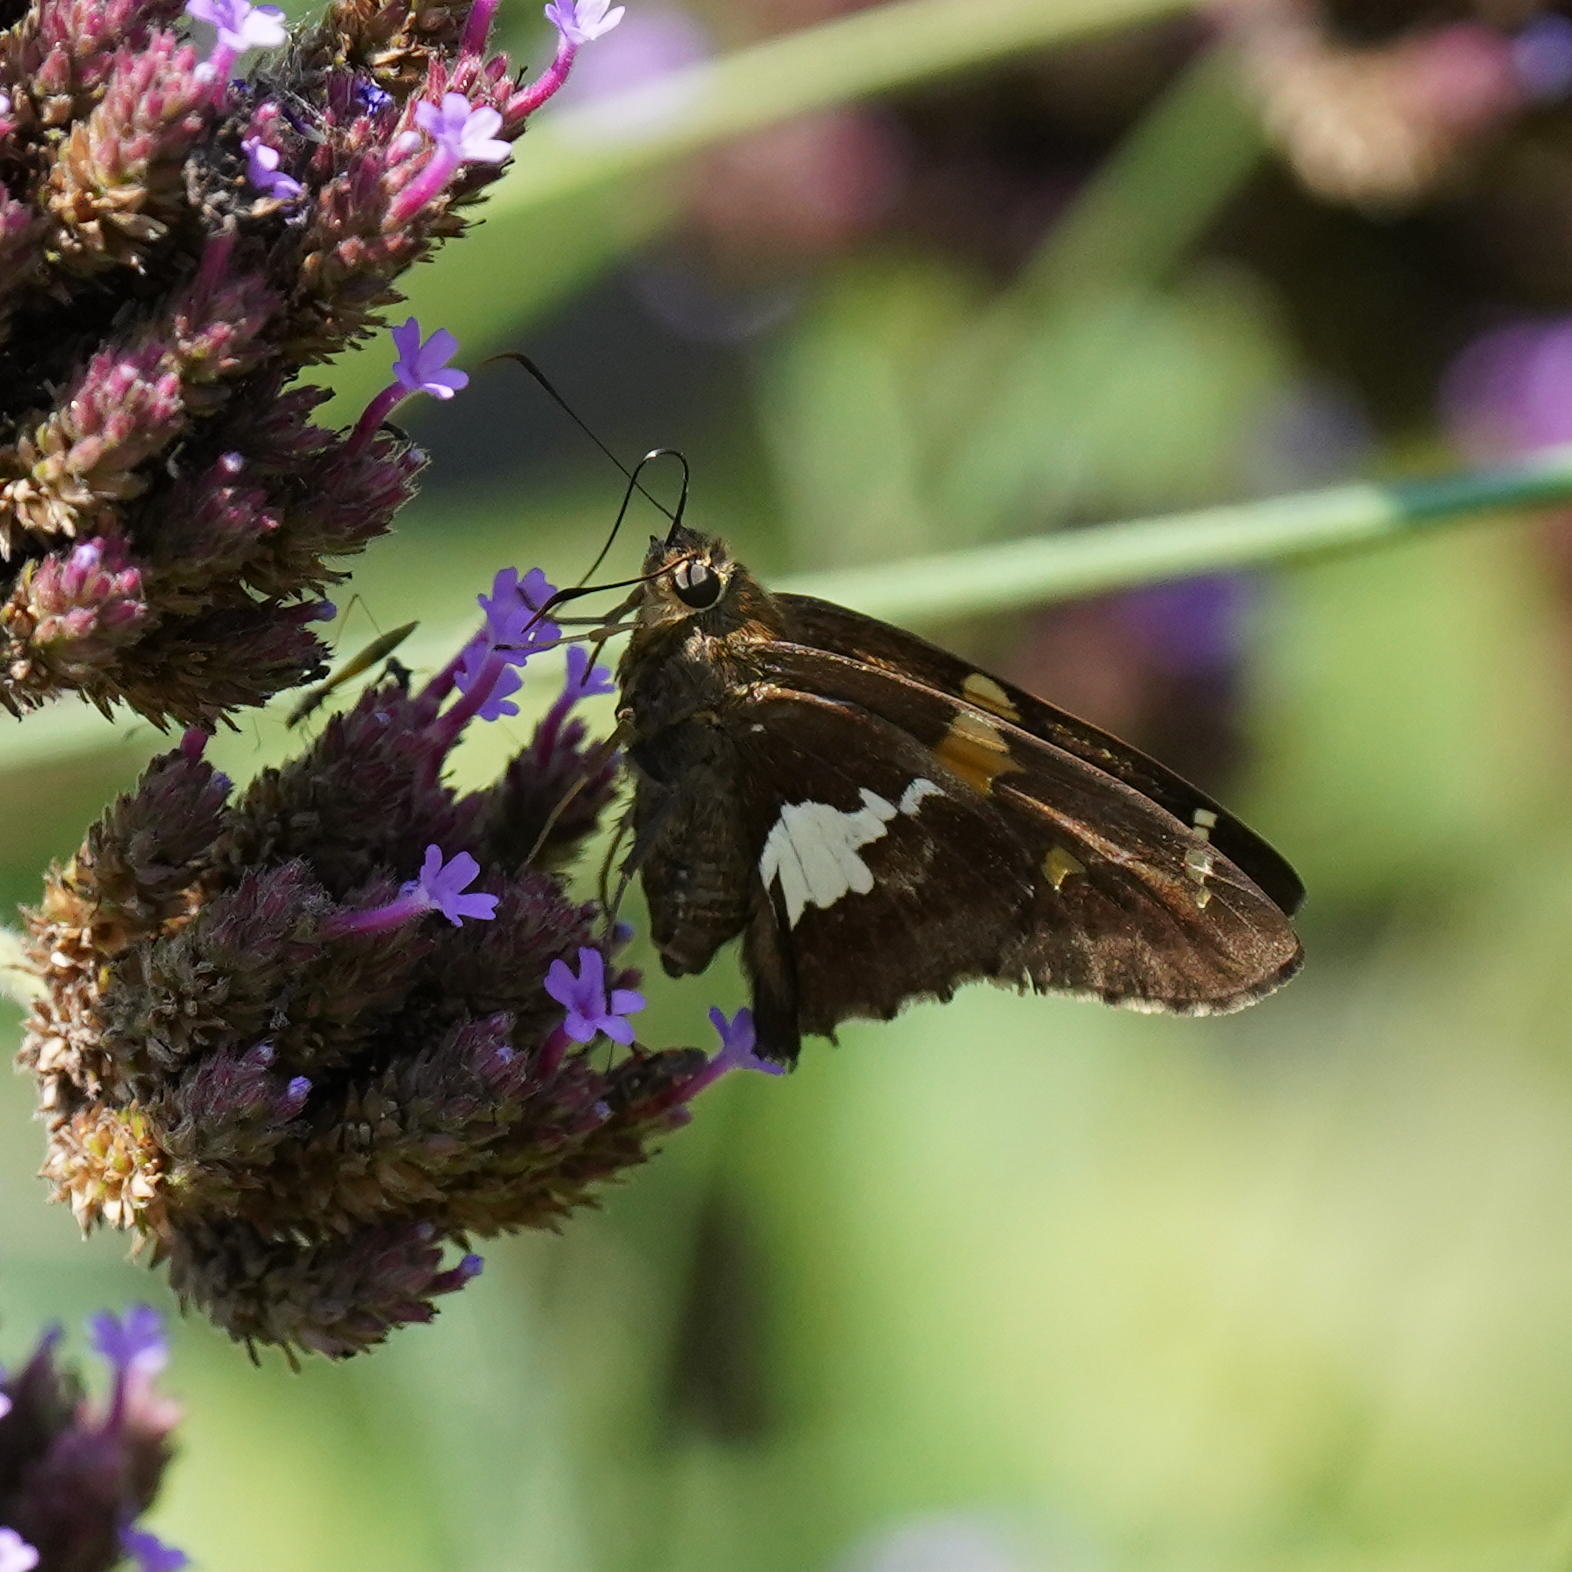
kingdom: Animalia
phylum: Arthropoda
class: Insecta
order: Lepidoptera
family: Hesperiidae
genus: Epargyreus
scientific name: Epargyreus clarus
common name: Silver-spotted skipper
